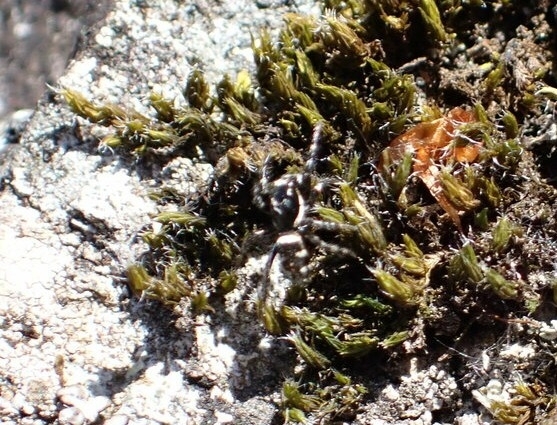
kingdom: Animalia
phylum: Arthropoda
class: Arachnida
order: Araneae
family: Salticidae
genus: Salticus
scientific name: Salticus scenicus
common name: Zebra jumper
